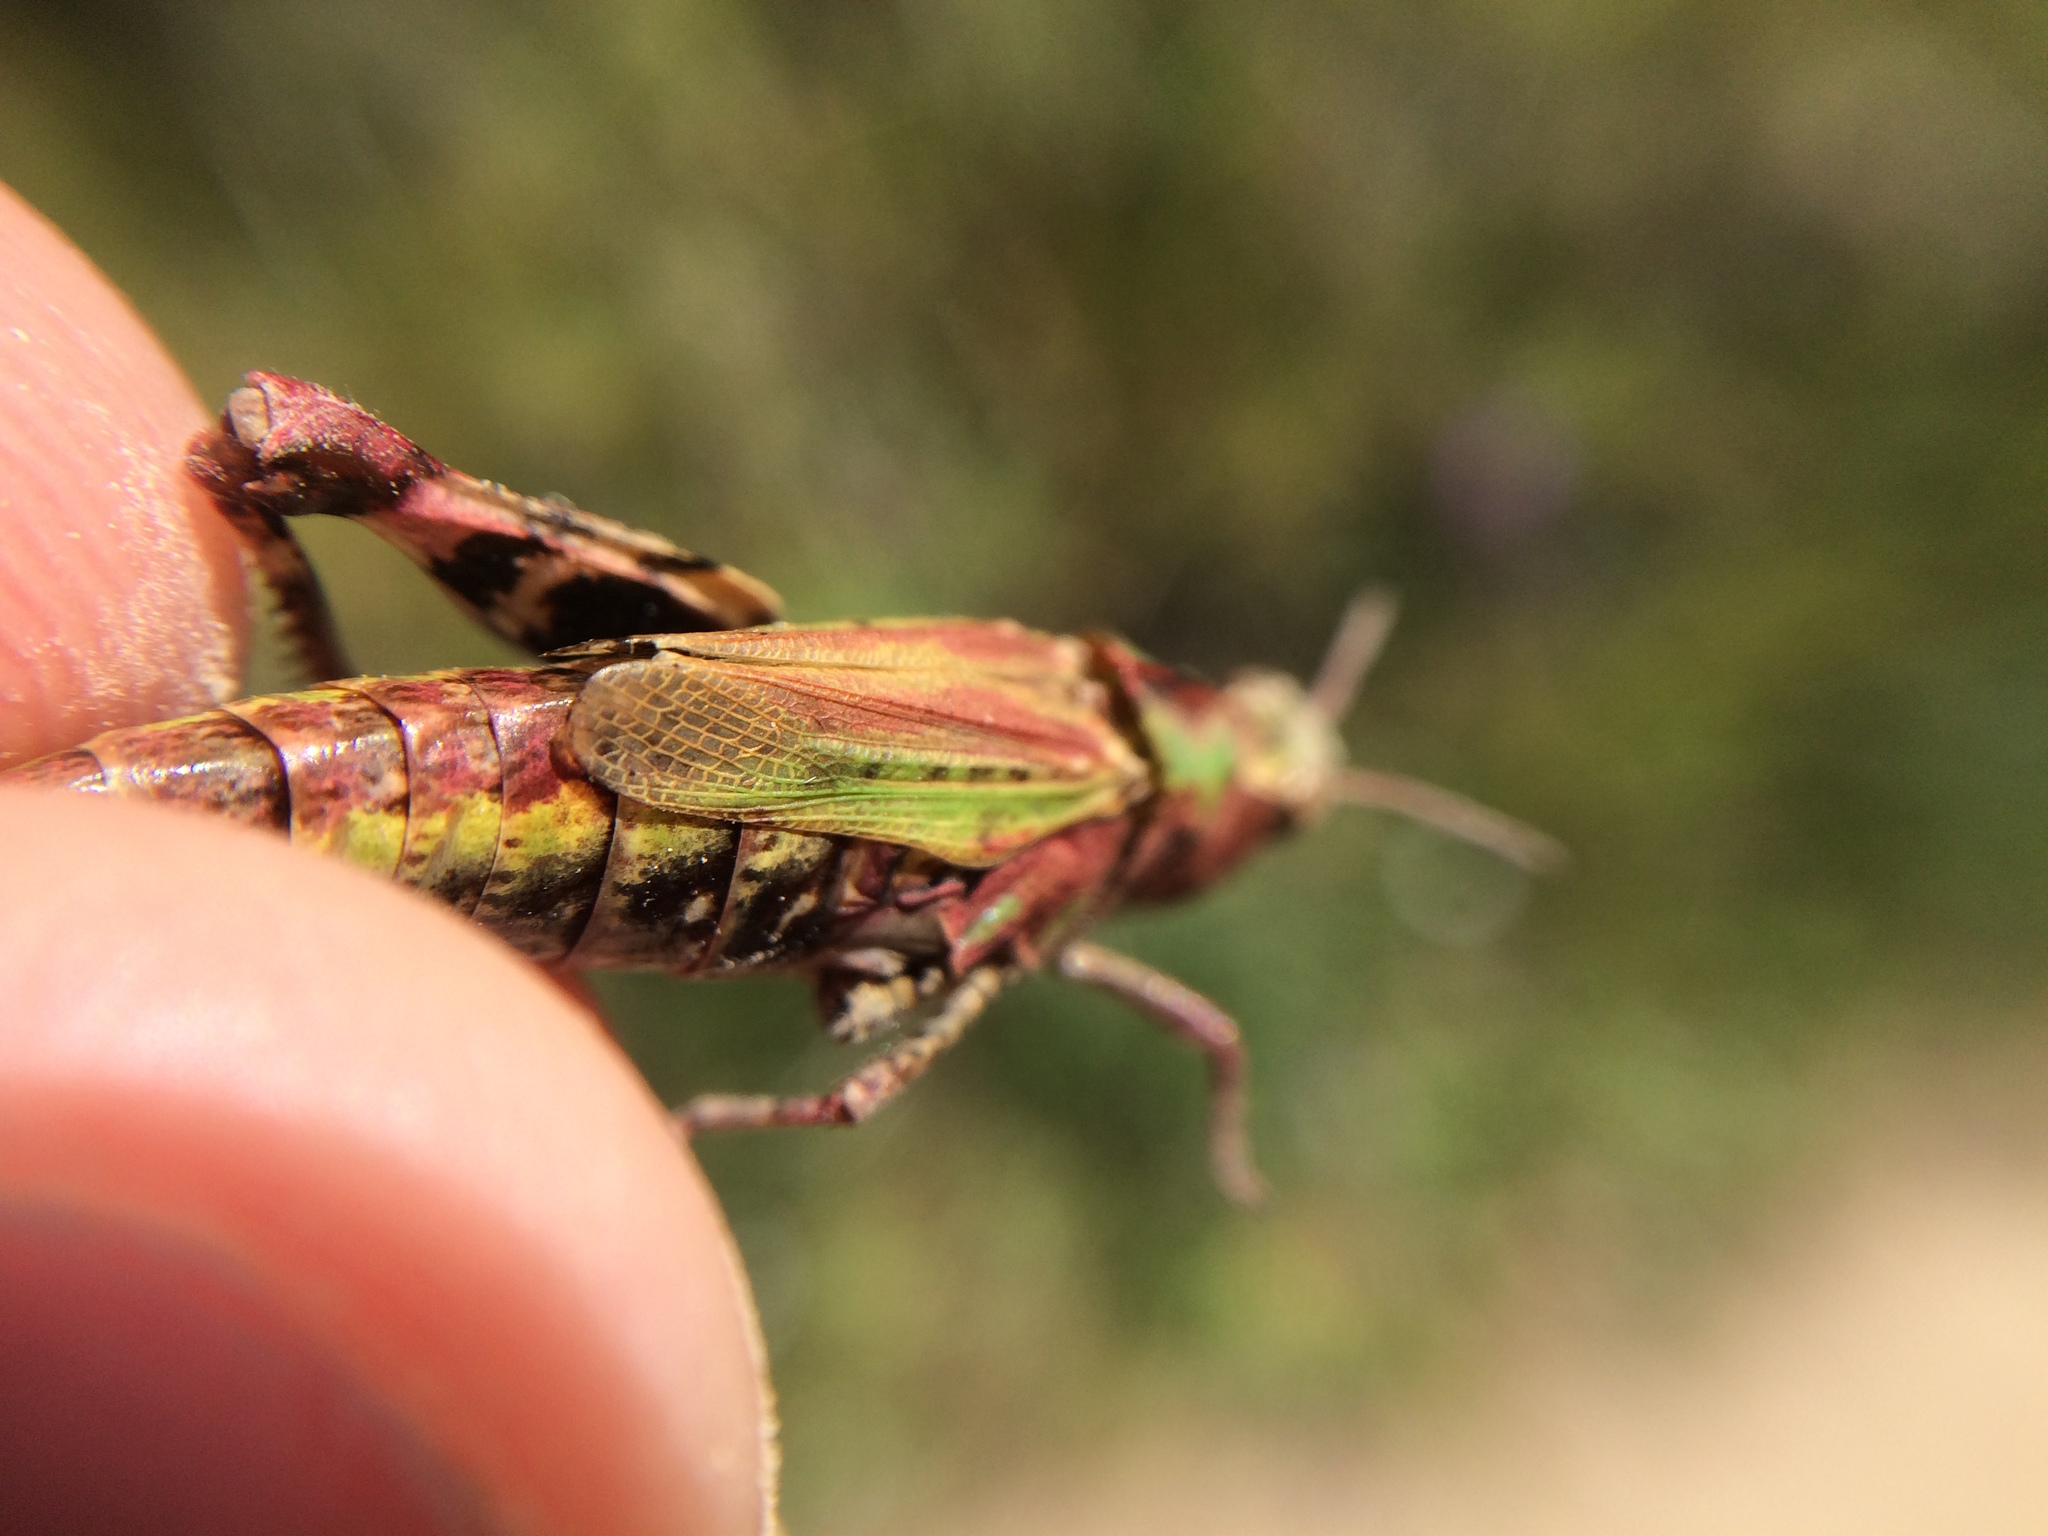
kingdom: Animalia
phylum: Arthropoda
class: Insecta
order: Orthoptera
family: Acrididae
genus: Chimarocephala
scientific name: Chimarocephala pacifica
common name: Painted meadow grasshopper
